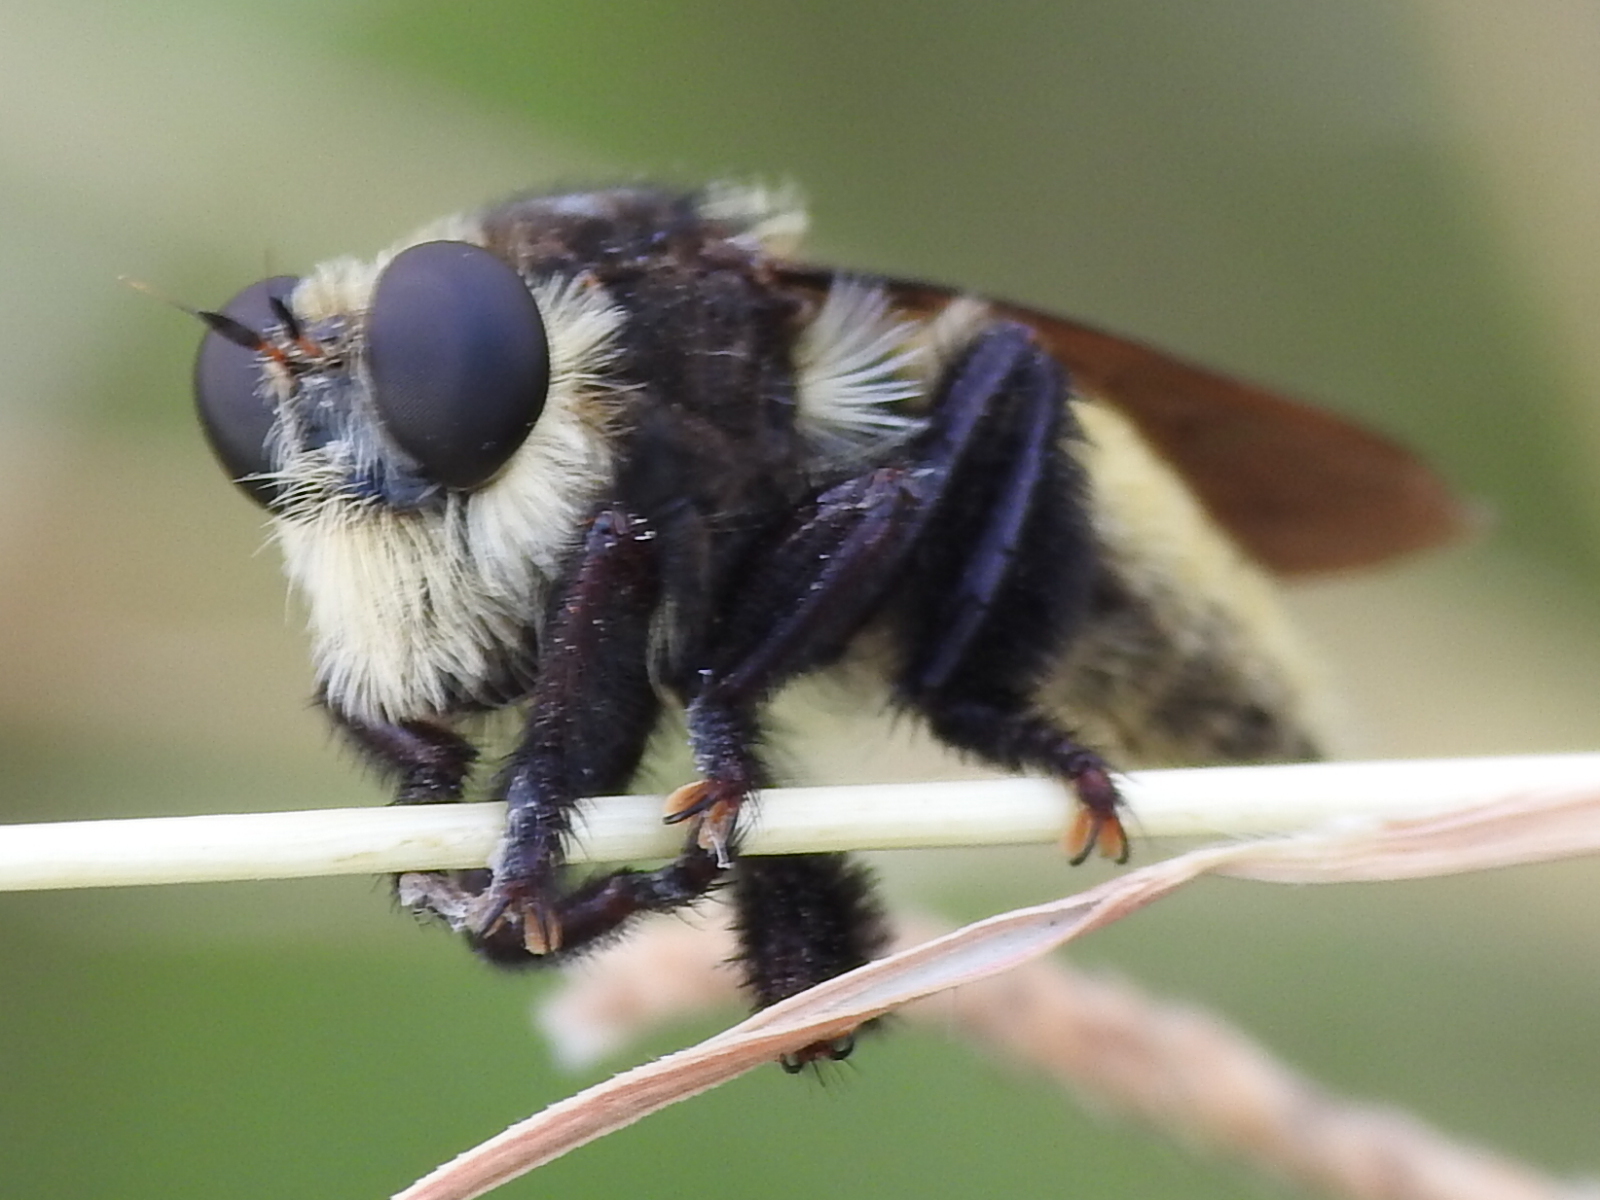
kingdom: Animalia
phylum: Arthropoda
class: Insecta
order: Diptera
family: Asilidae
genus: Mallophora
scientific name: Mallophora fautrix
